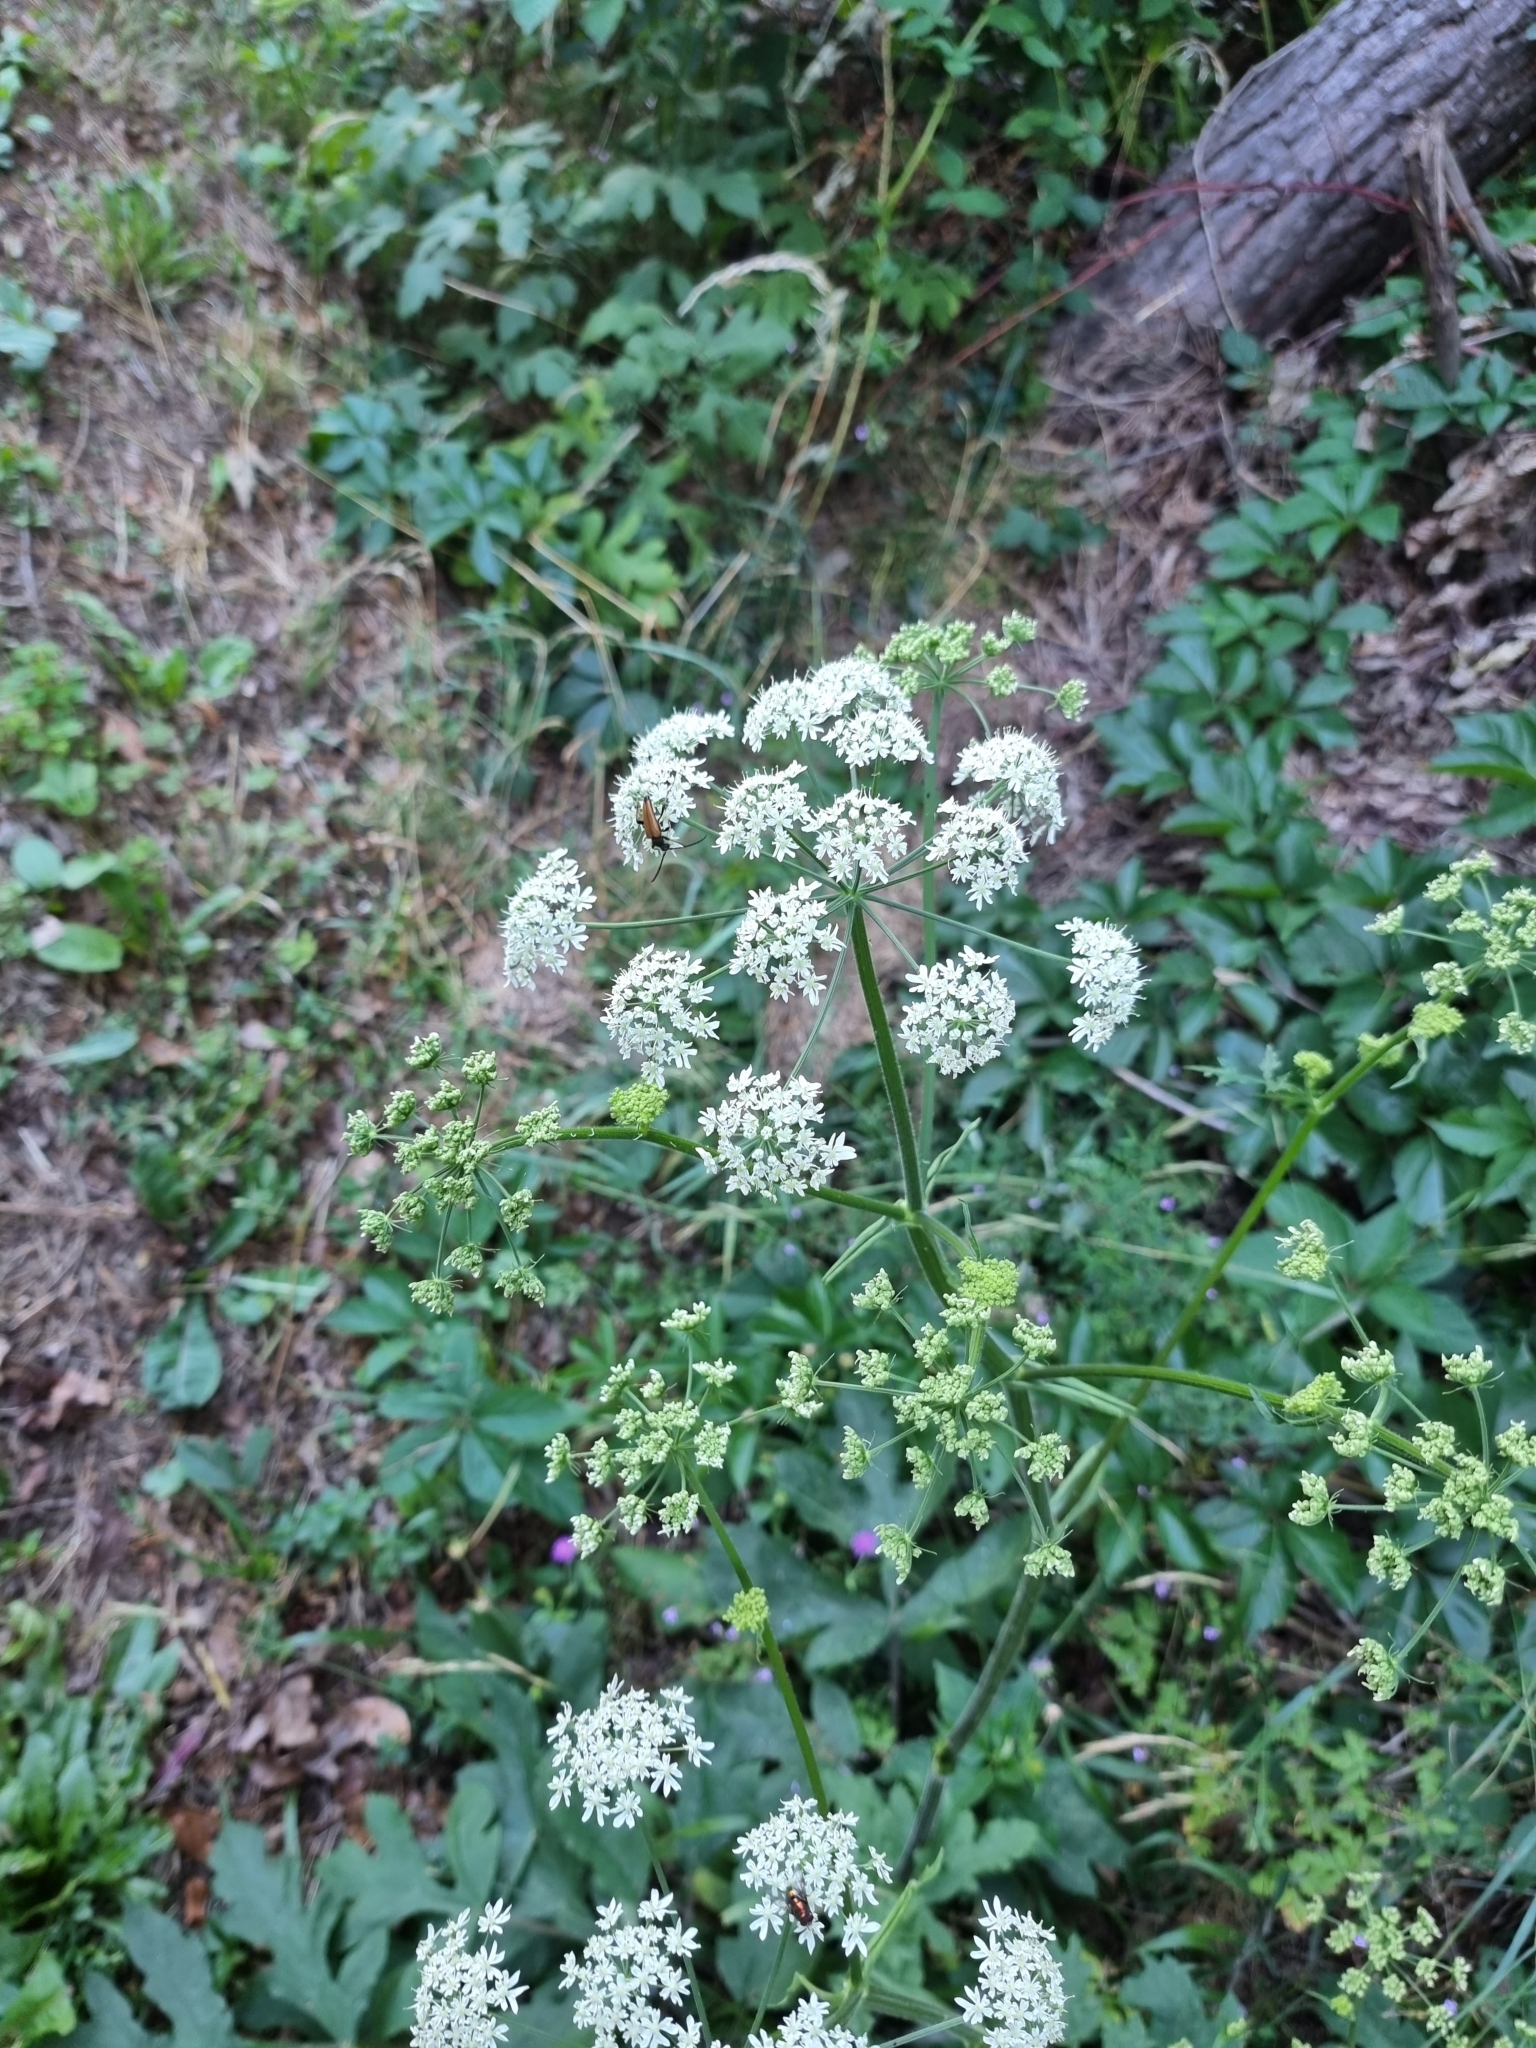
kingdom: Plantae
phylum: Tracheophyta
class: Magnoliopsida
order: Apiales
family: Apiaceae
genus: Heracleum
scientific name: Heracleum sphondylium
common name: Hogweed
